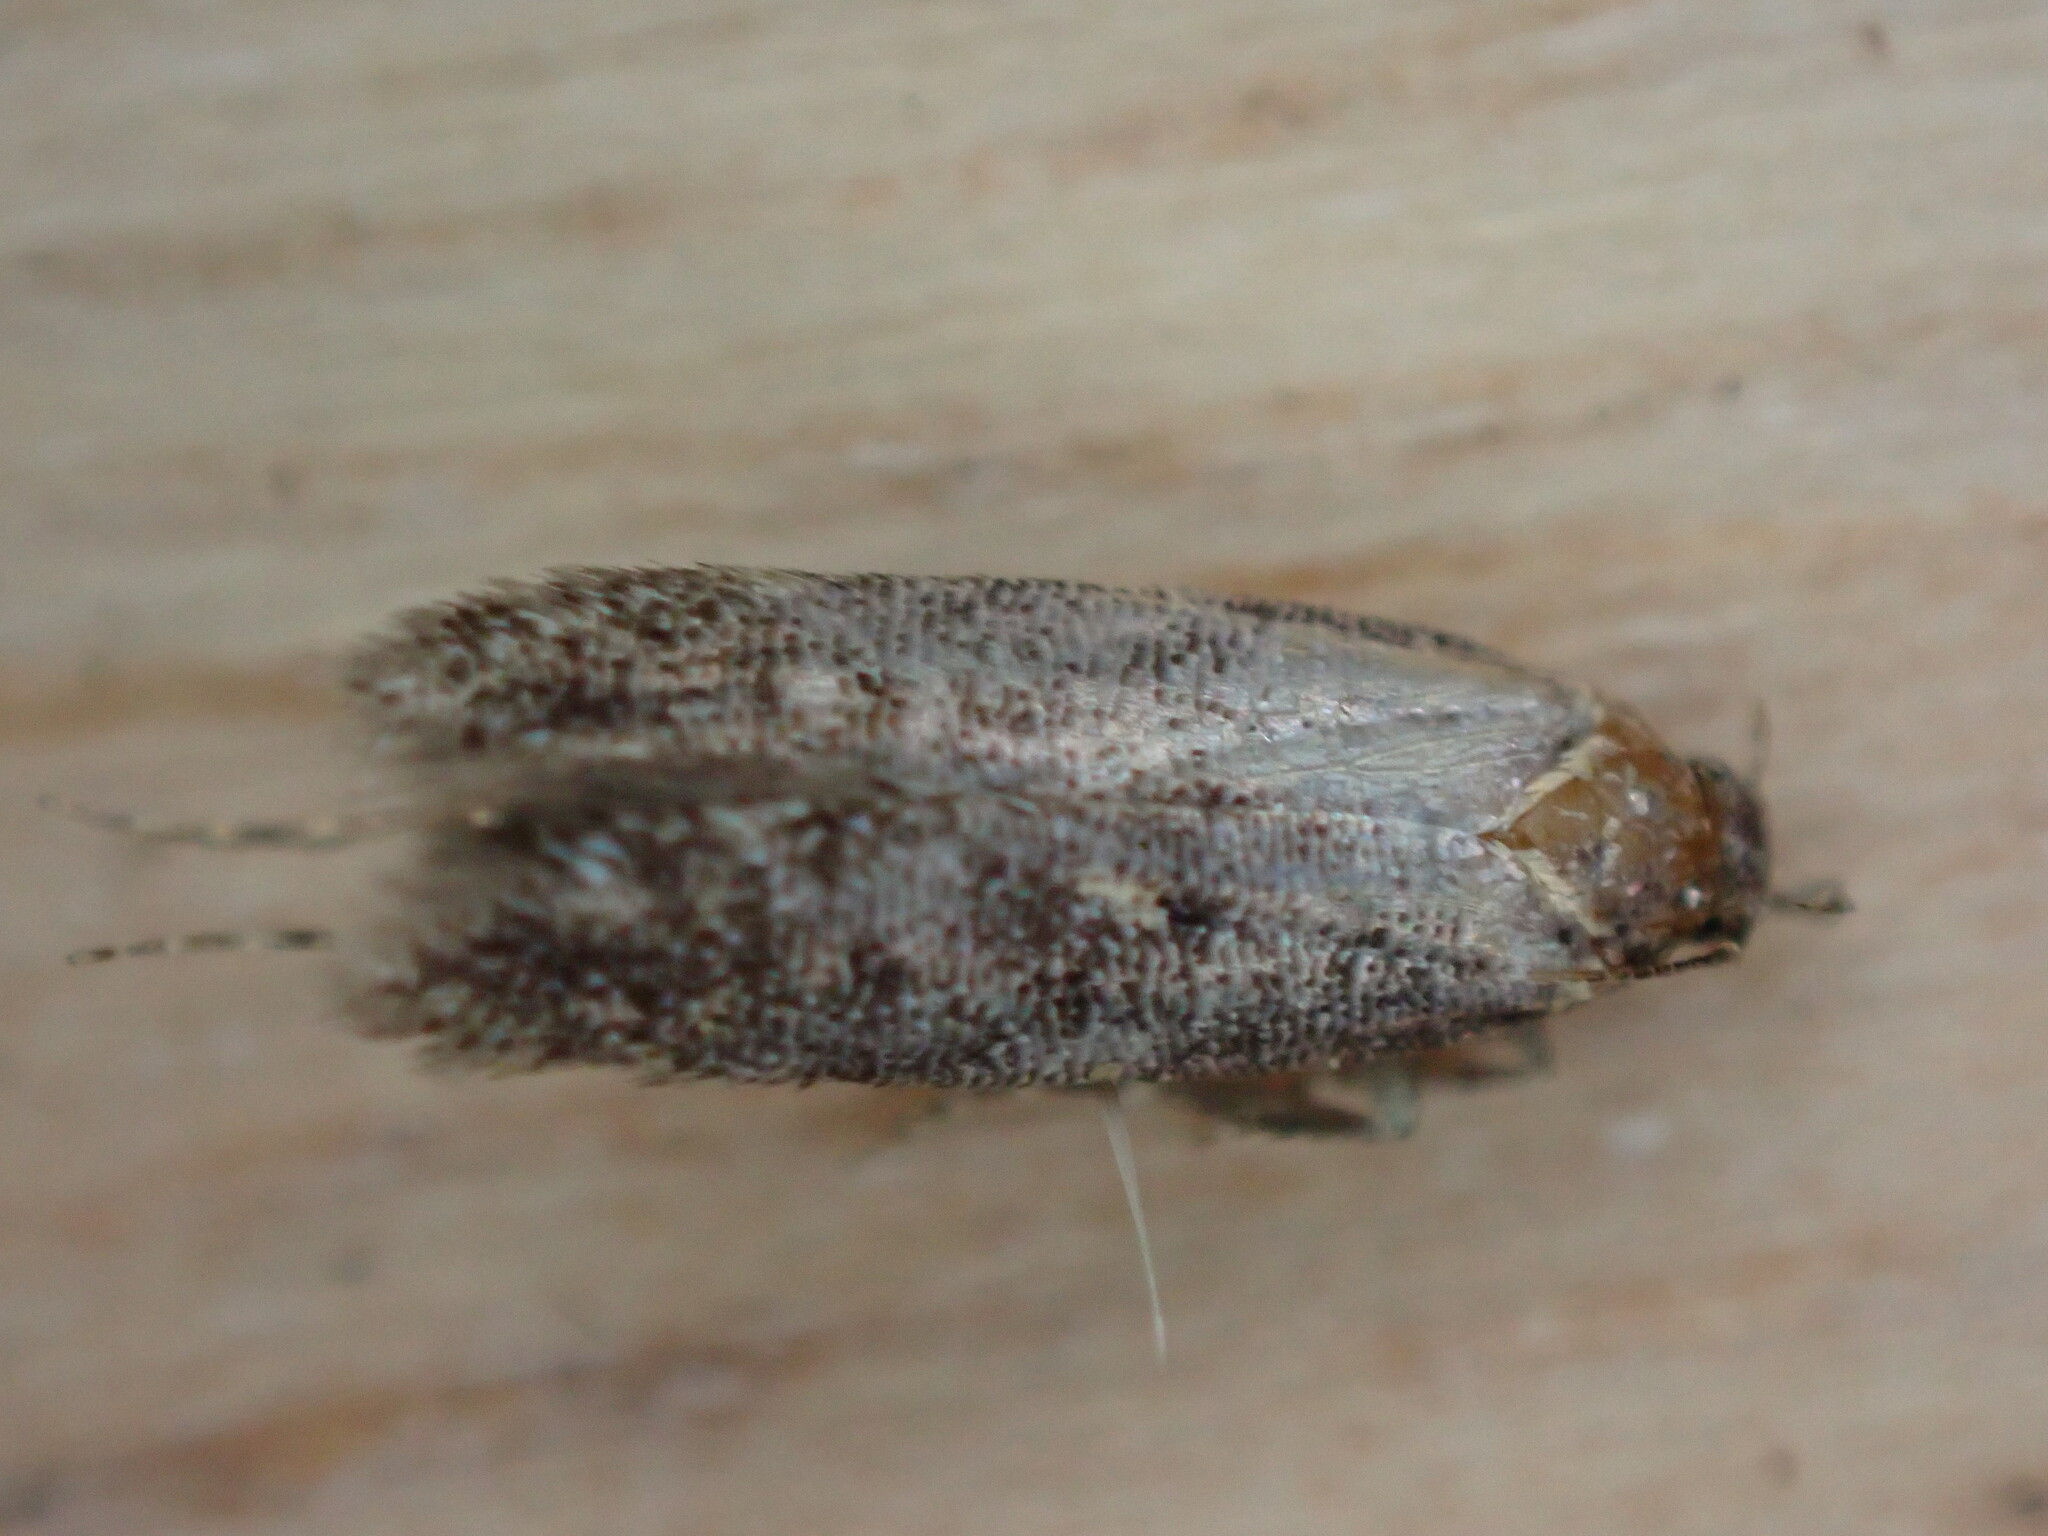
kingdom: Animalia
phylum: Arthropoda
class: Insecta
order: Lepidoptera
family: Gelechiidae
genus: Bryotropha
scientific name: Bryotropha affinis
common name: Dark groundling
